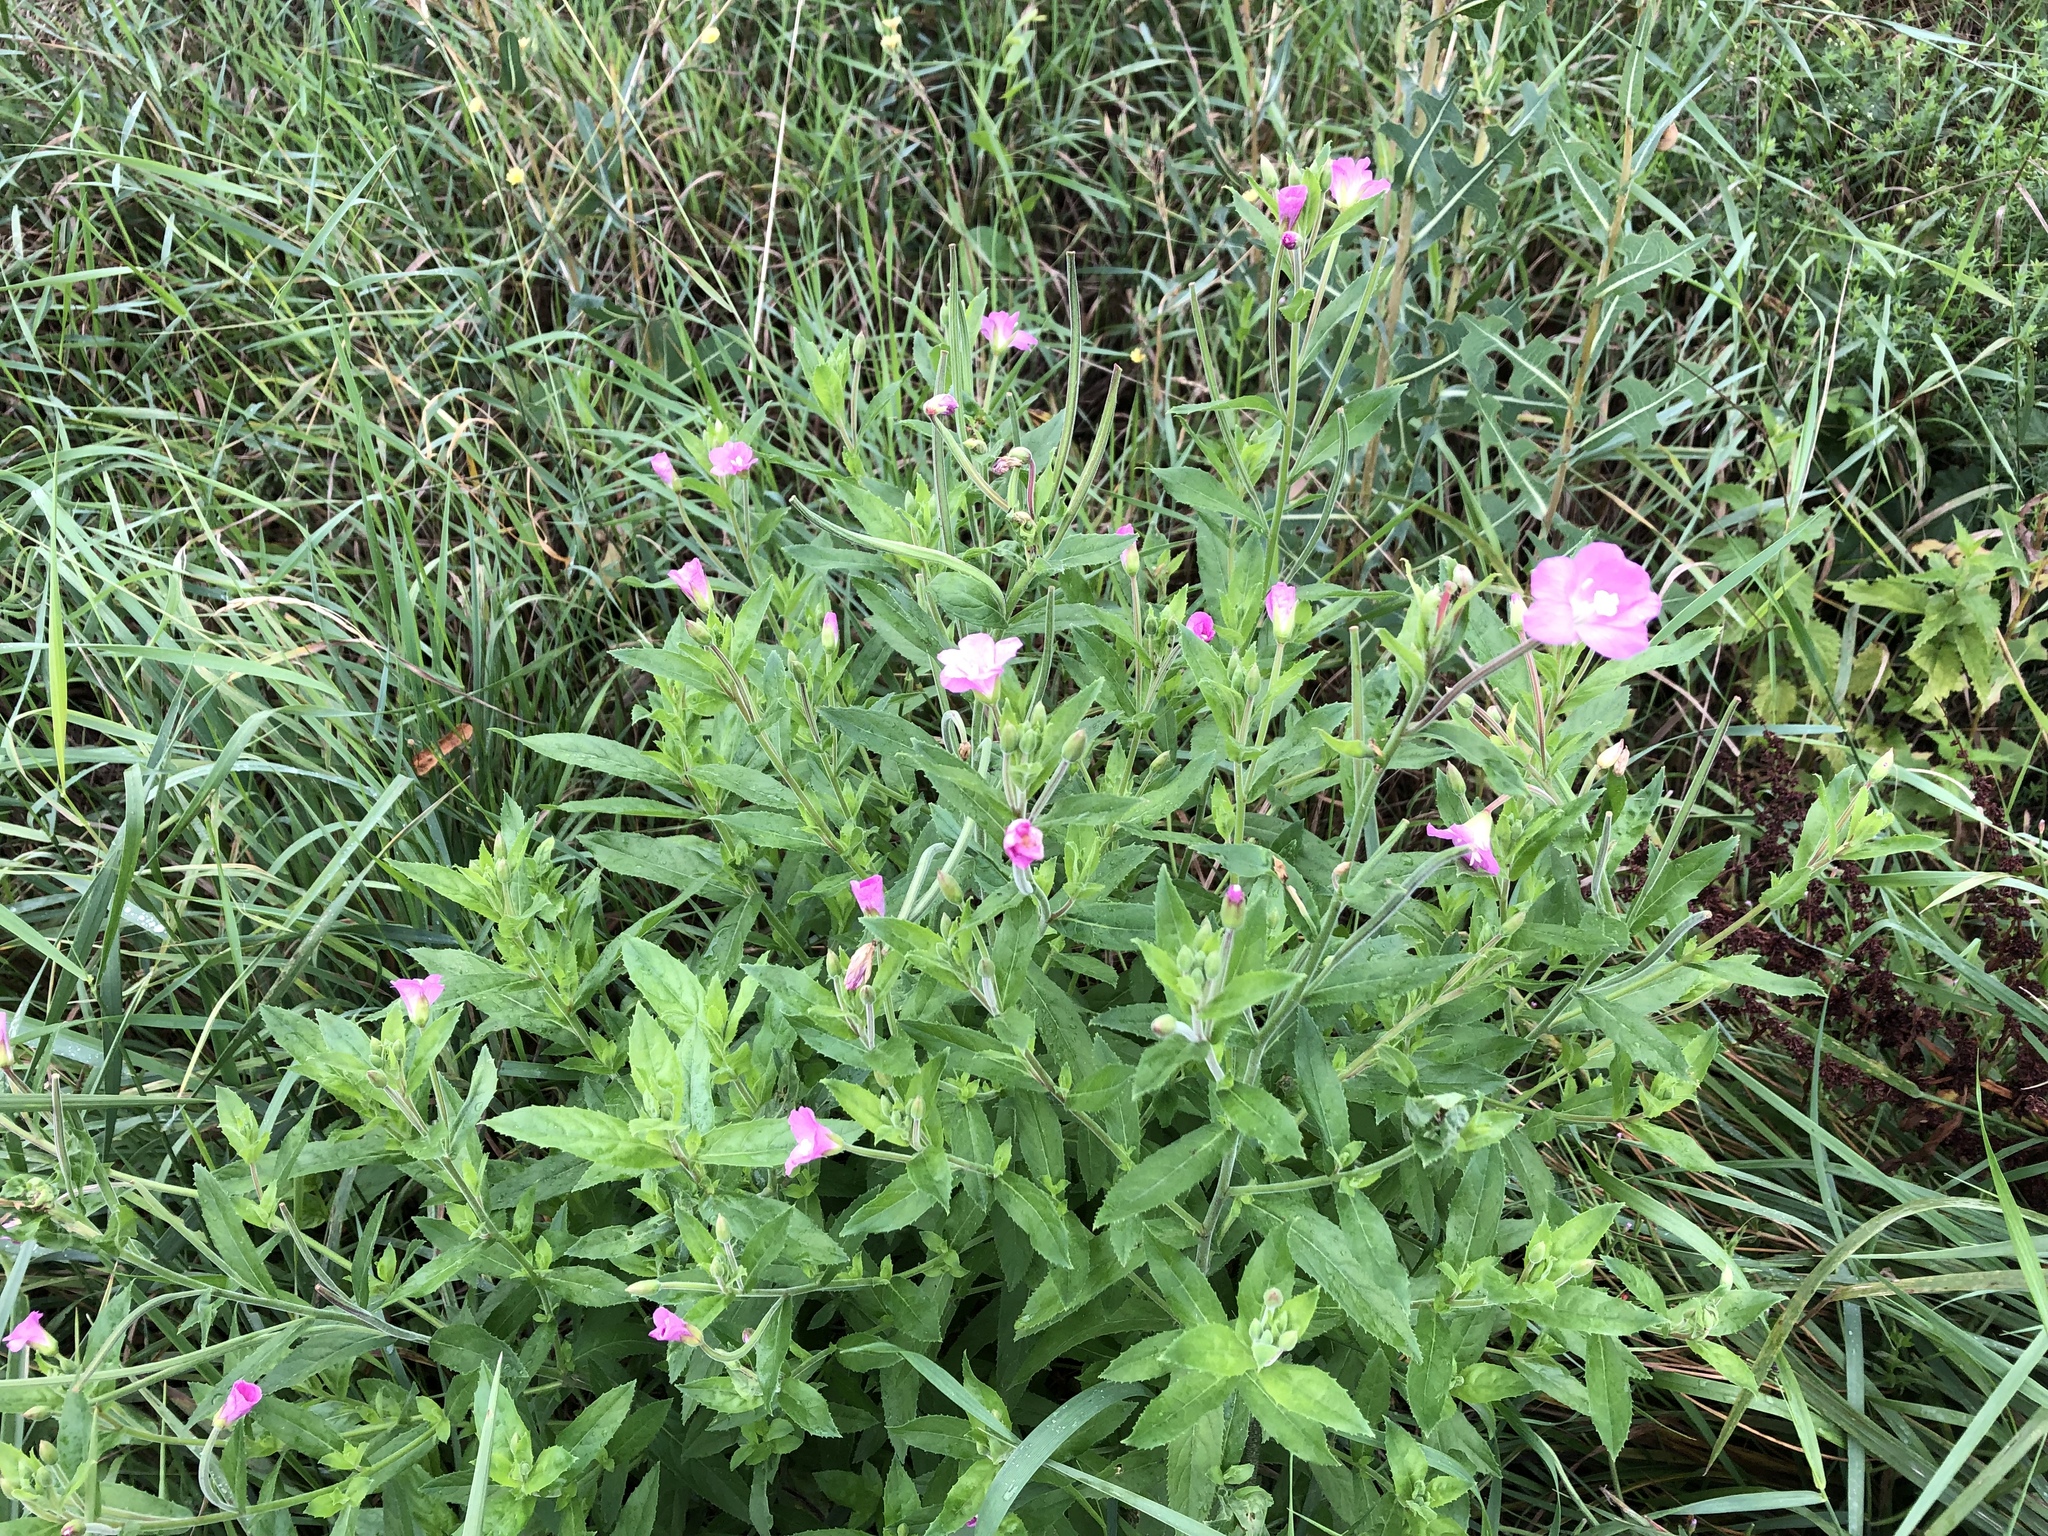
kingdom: Plantae
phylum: Tracheophyta
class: Magnoliopsida
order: Myrtales
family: Onagraceae
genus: Epilobium
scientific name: Epilobium hirsutum
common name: Great willowherb
